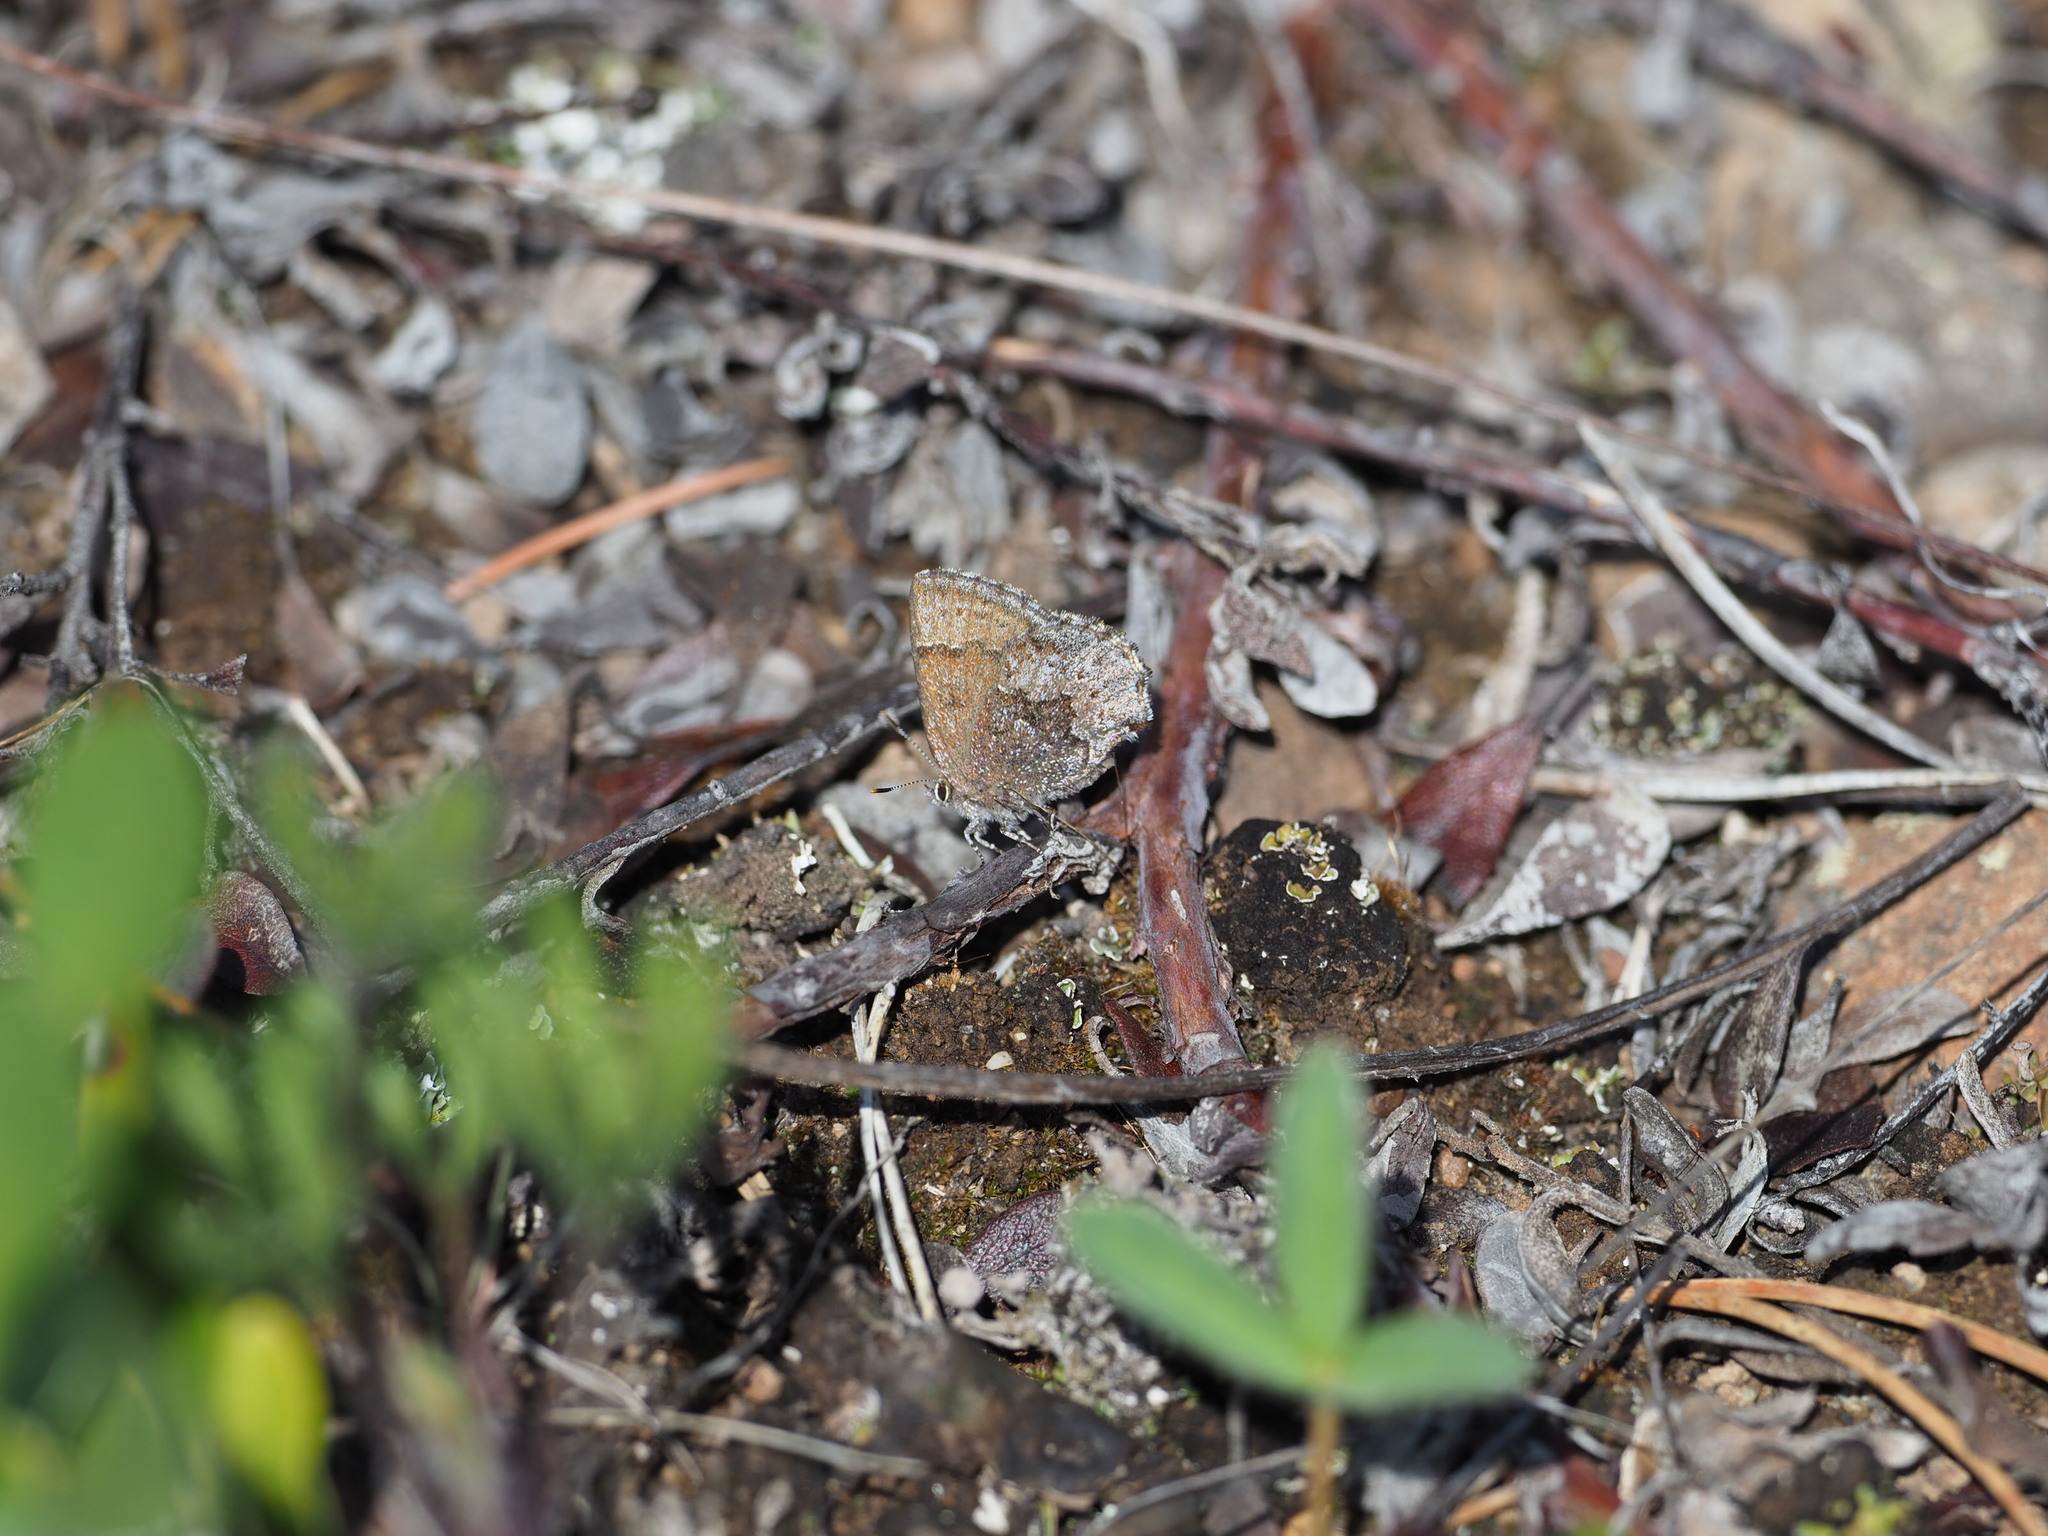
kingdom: Animalia
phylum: Arthropoda
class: Insecta
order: Lepidoptera
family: Lycaenidae
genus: Callophrys
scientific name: Callophrys polios
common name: Hoary elfin
